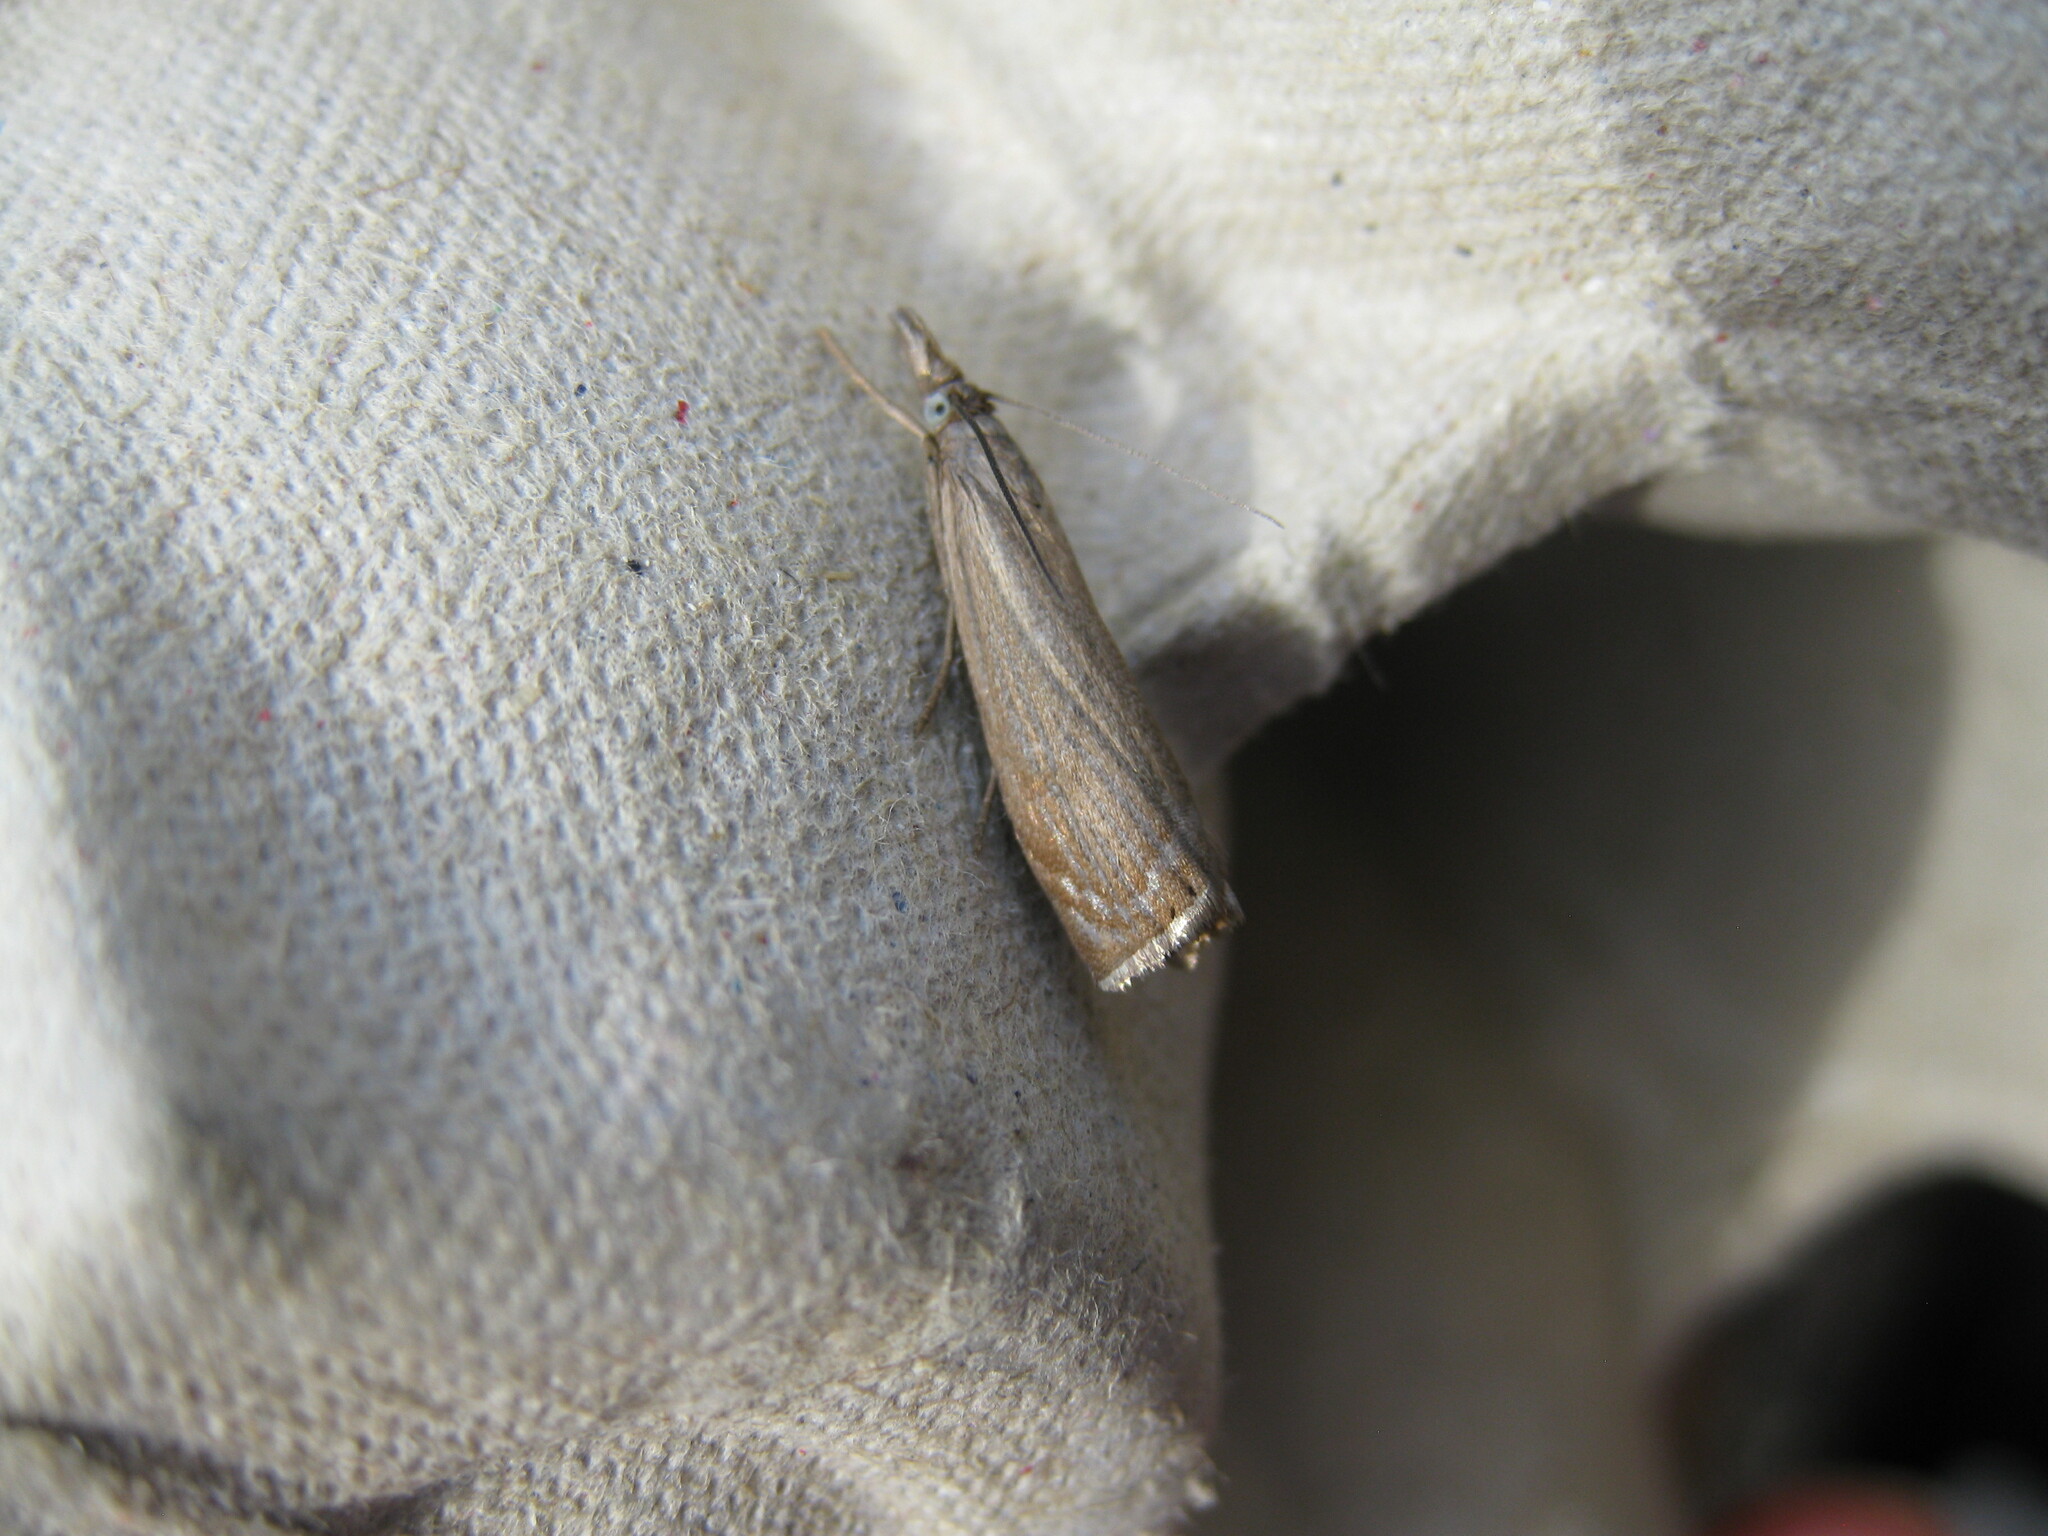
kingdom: Animalia
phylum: Arthropoda
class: Insecta
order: Lepidoptera
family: Crambidae
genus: Chrysoteuchia
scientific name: Chrysoteuchia culmella
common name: Garden grass-veneer
